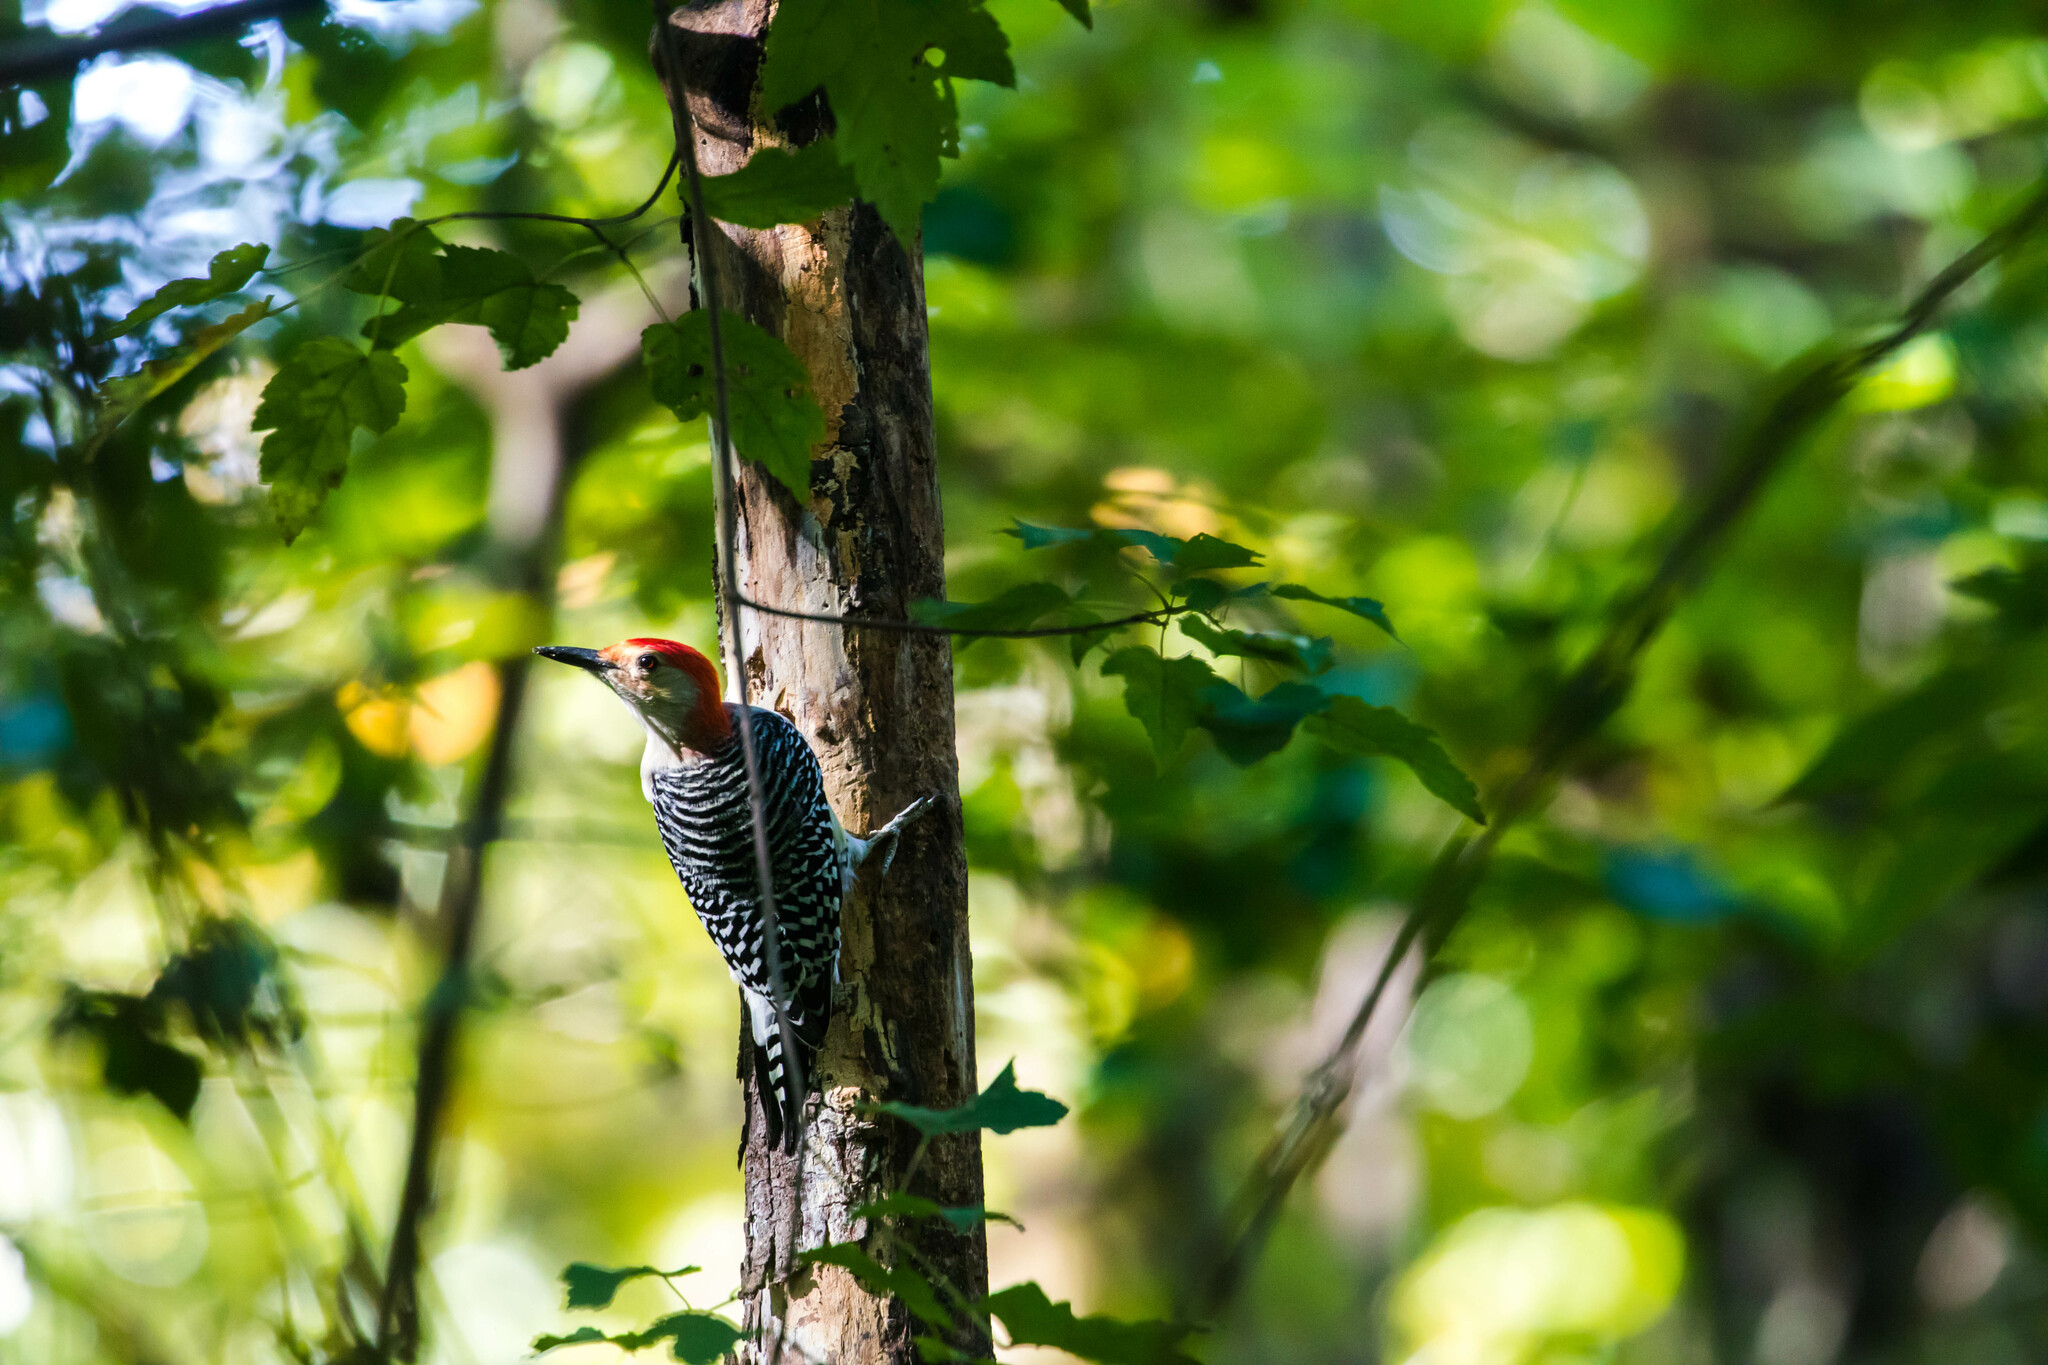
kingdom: Animalia
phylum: Chordata
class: Aves
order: Piciformes
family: Picidae
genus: Melanerpes
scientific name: Melanerpes carolinus
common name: Red-bellied woodpecker
